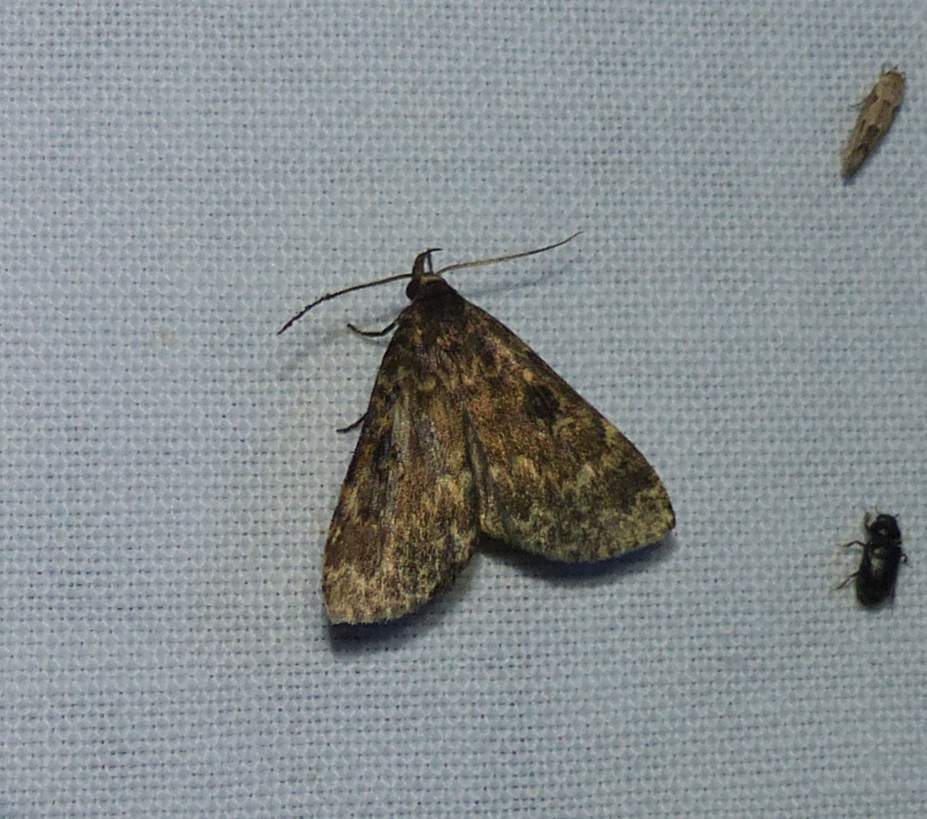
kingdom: Animalia
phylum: Arthropoda
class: Insecta
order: Lepidoptera
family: Erebidae
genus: Idia
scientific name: Idia lubricalis
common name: Twin-striped tabby
